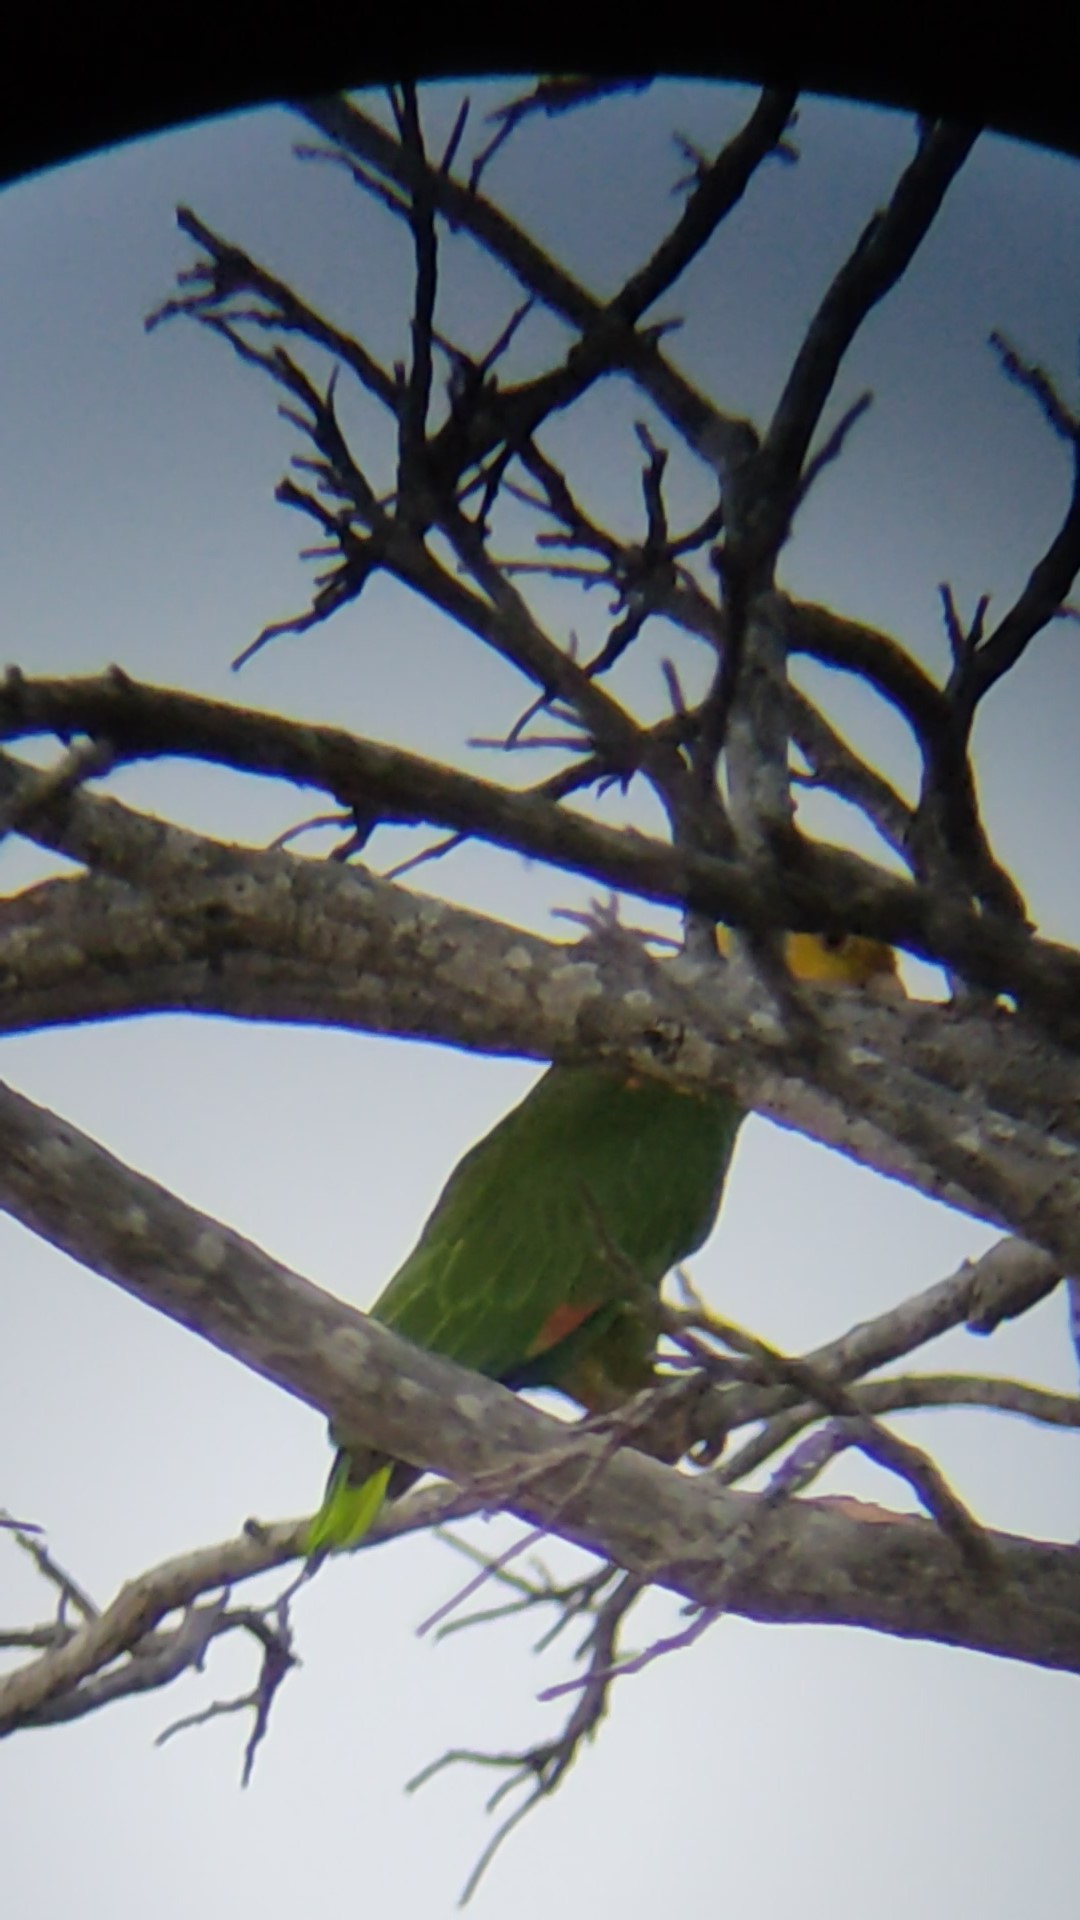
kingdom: Animalia
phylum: Chordata
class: Aves
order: Psittaciformes
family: Psittacidae
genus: Amazona
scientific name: Amazona oratrix
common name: Yellow-headed amazon
